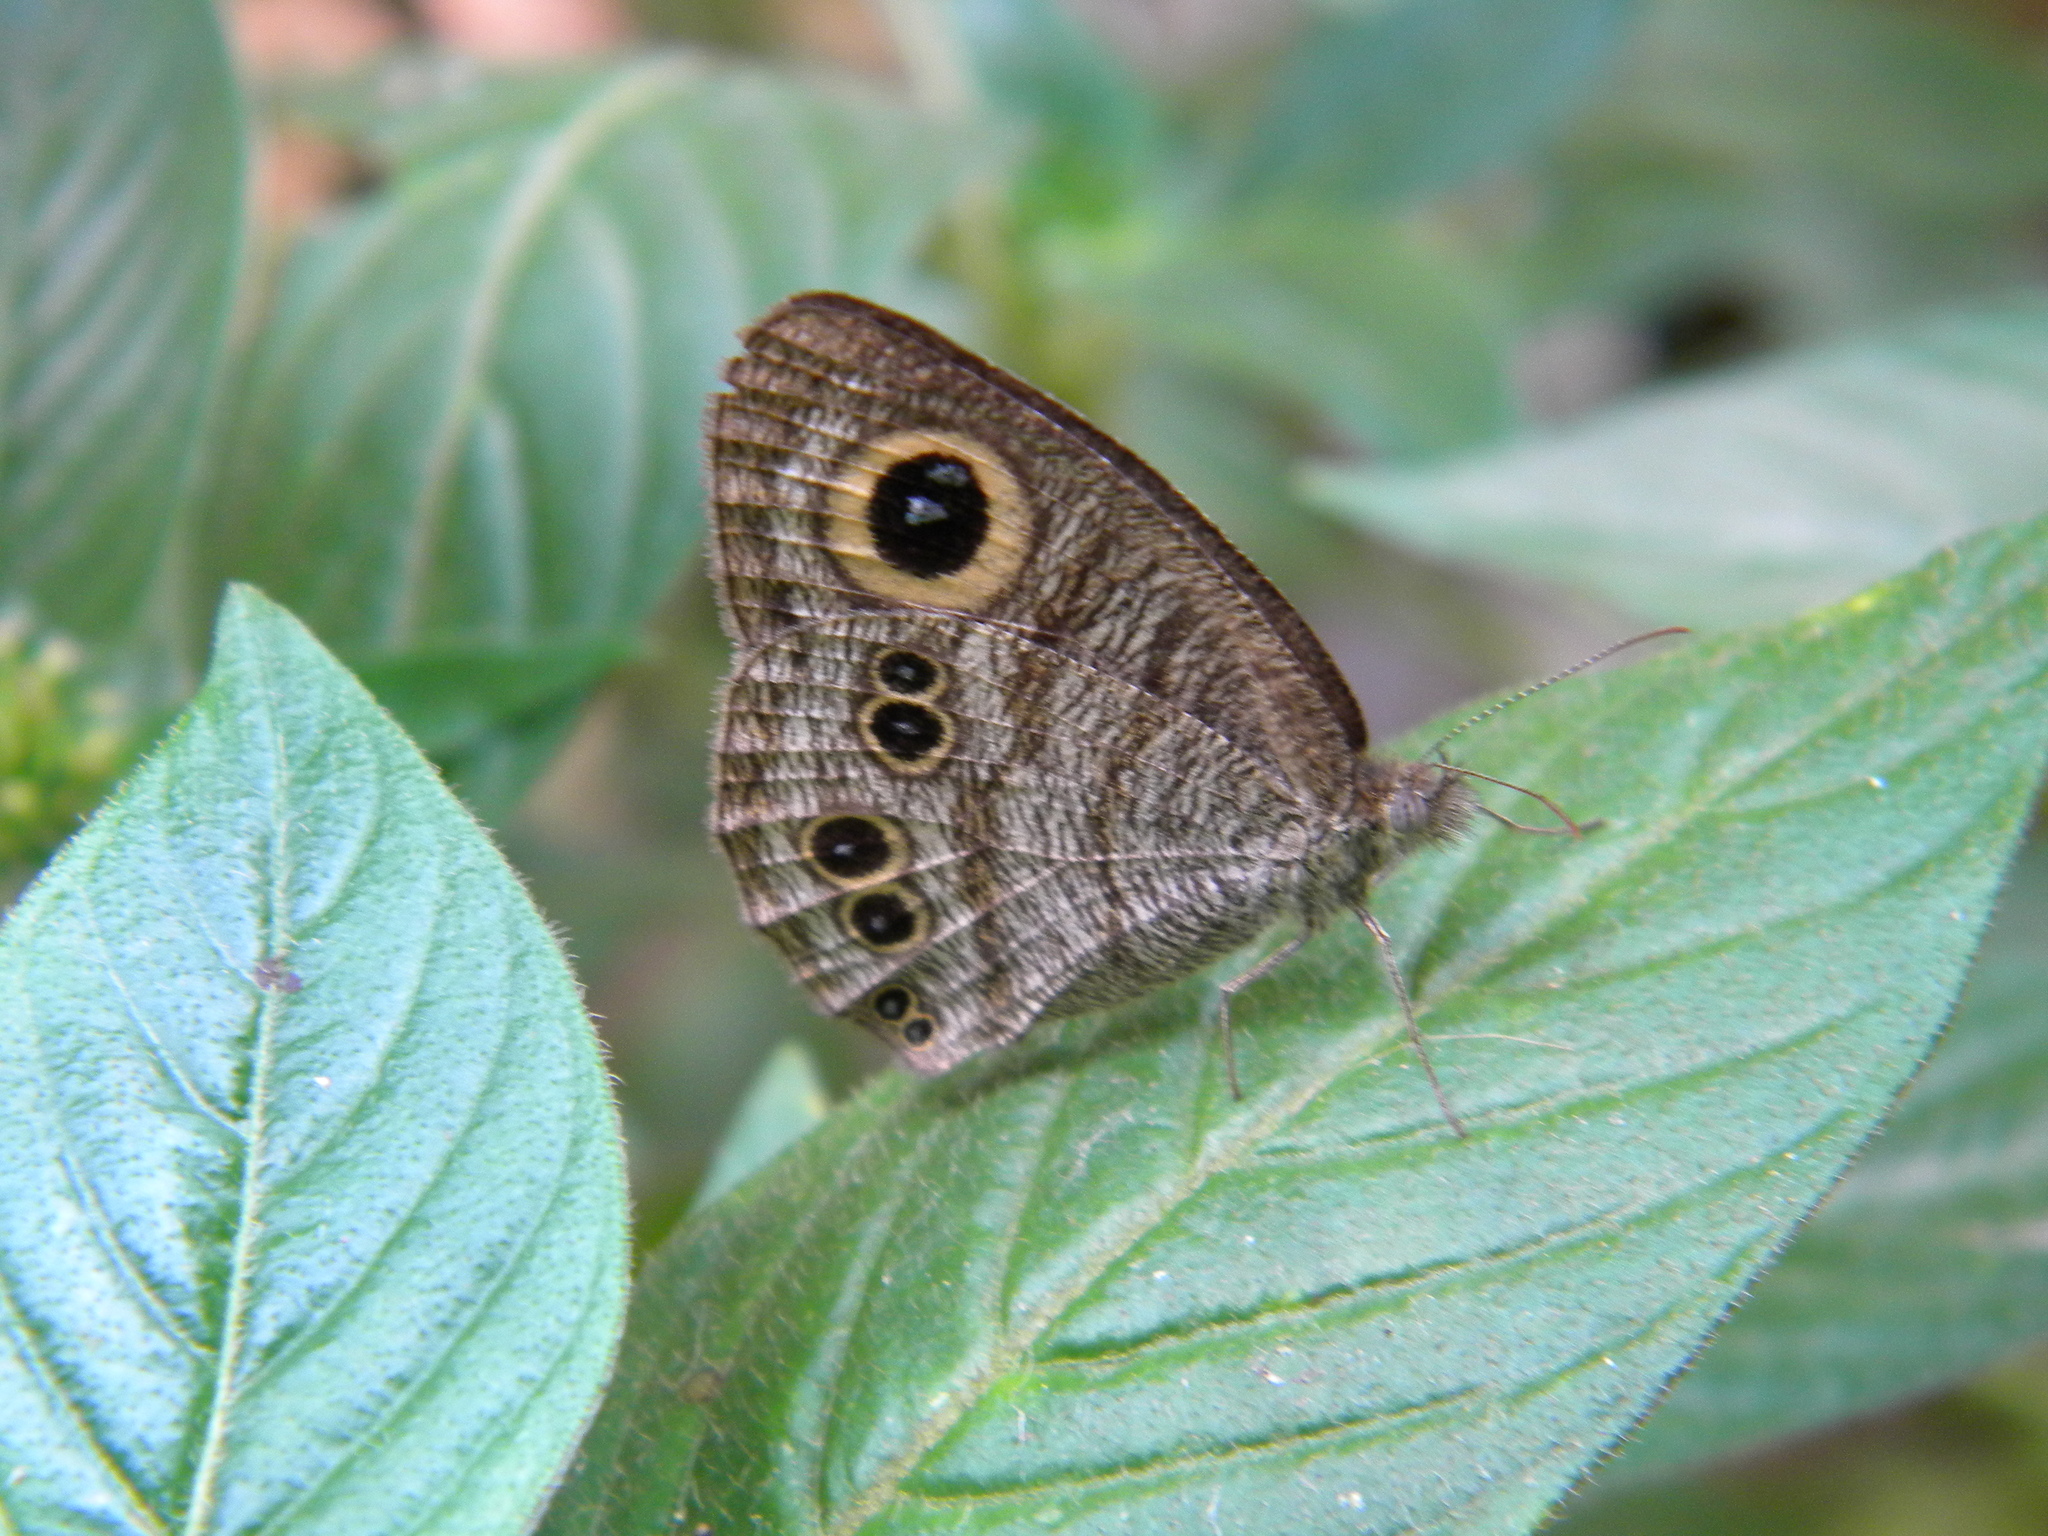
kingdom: Animalia
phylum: Arthropoda
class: Insecta
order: Lepidoptera
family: Nymphalidae
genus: Ypthima
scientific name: Ypthima baldus
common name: Common five-ring
